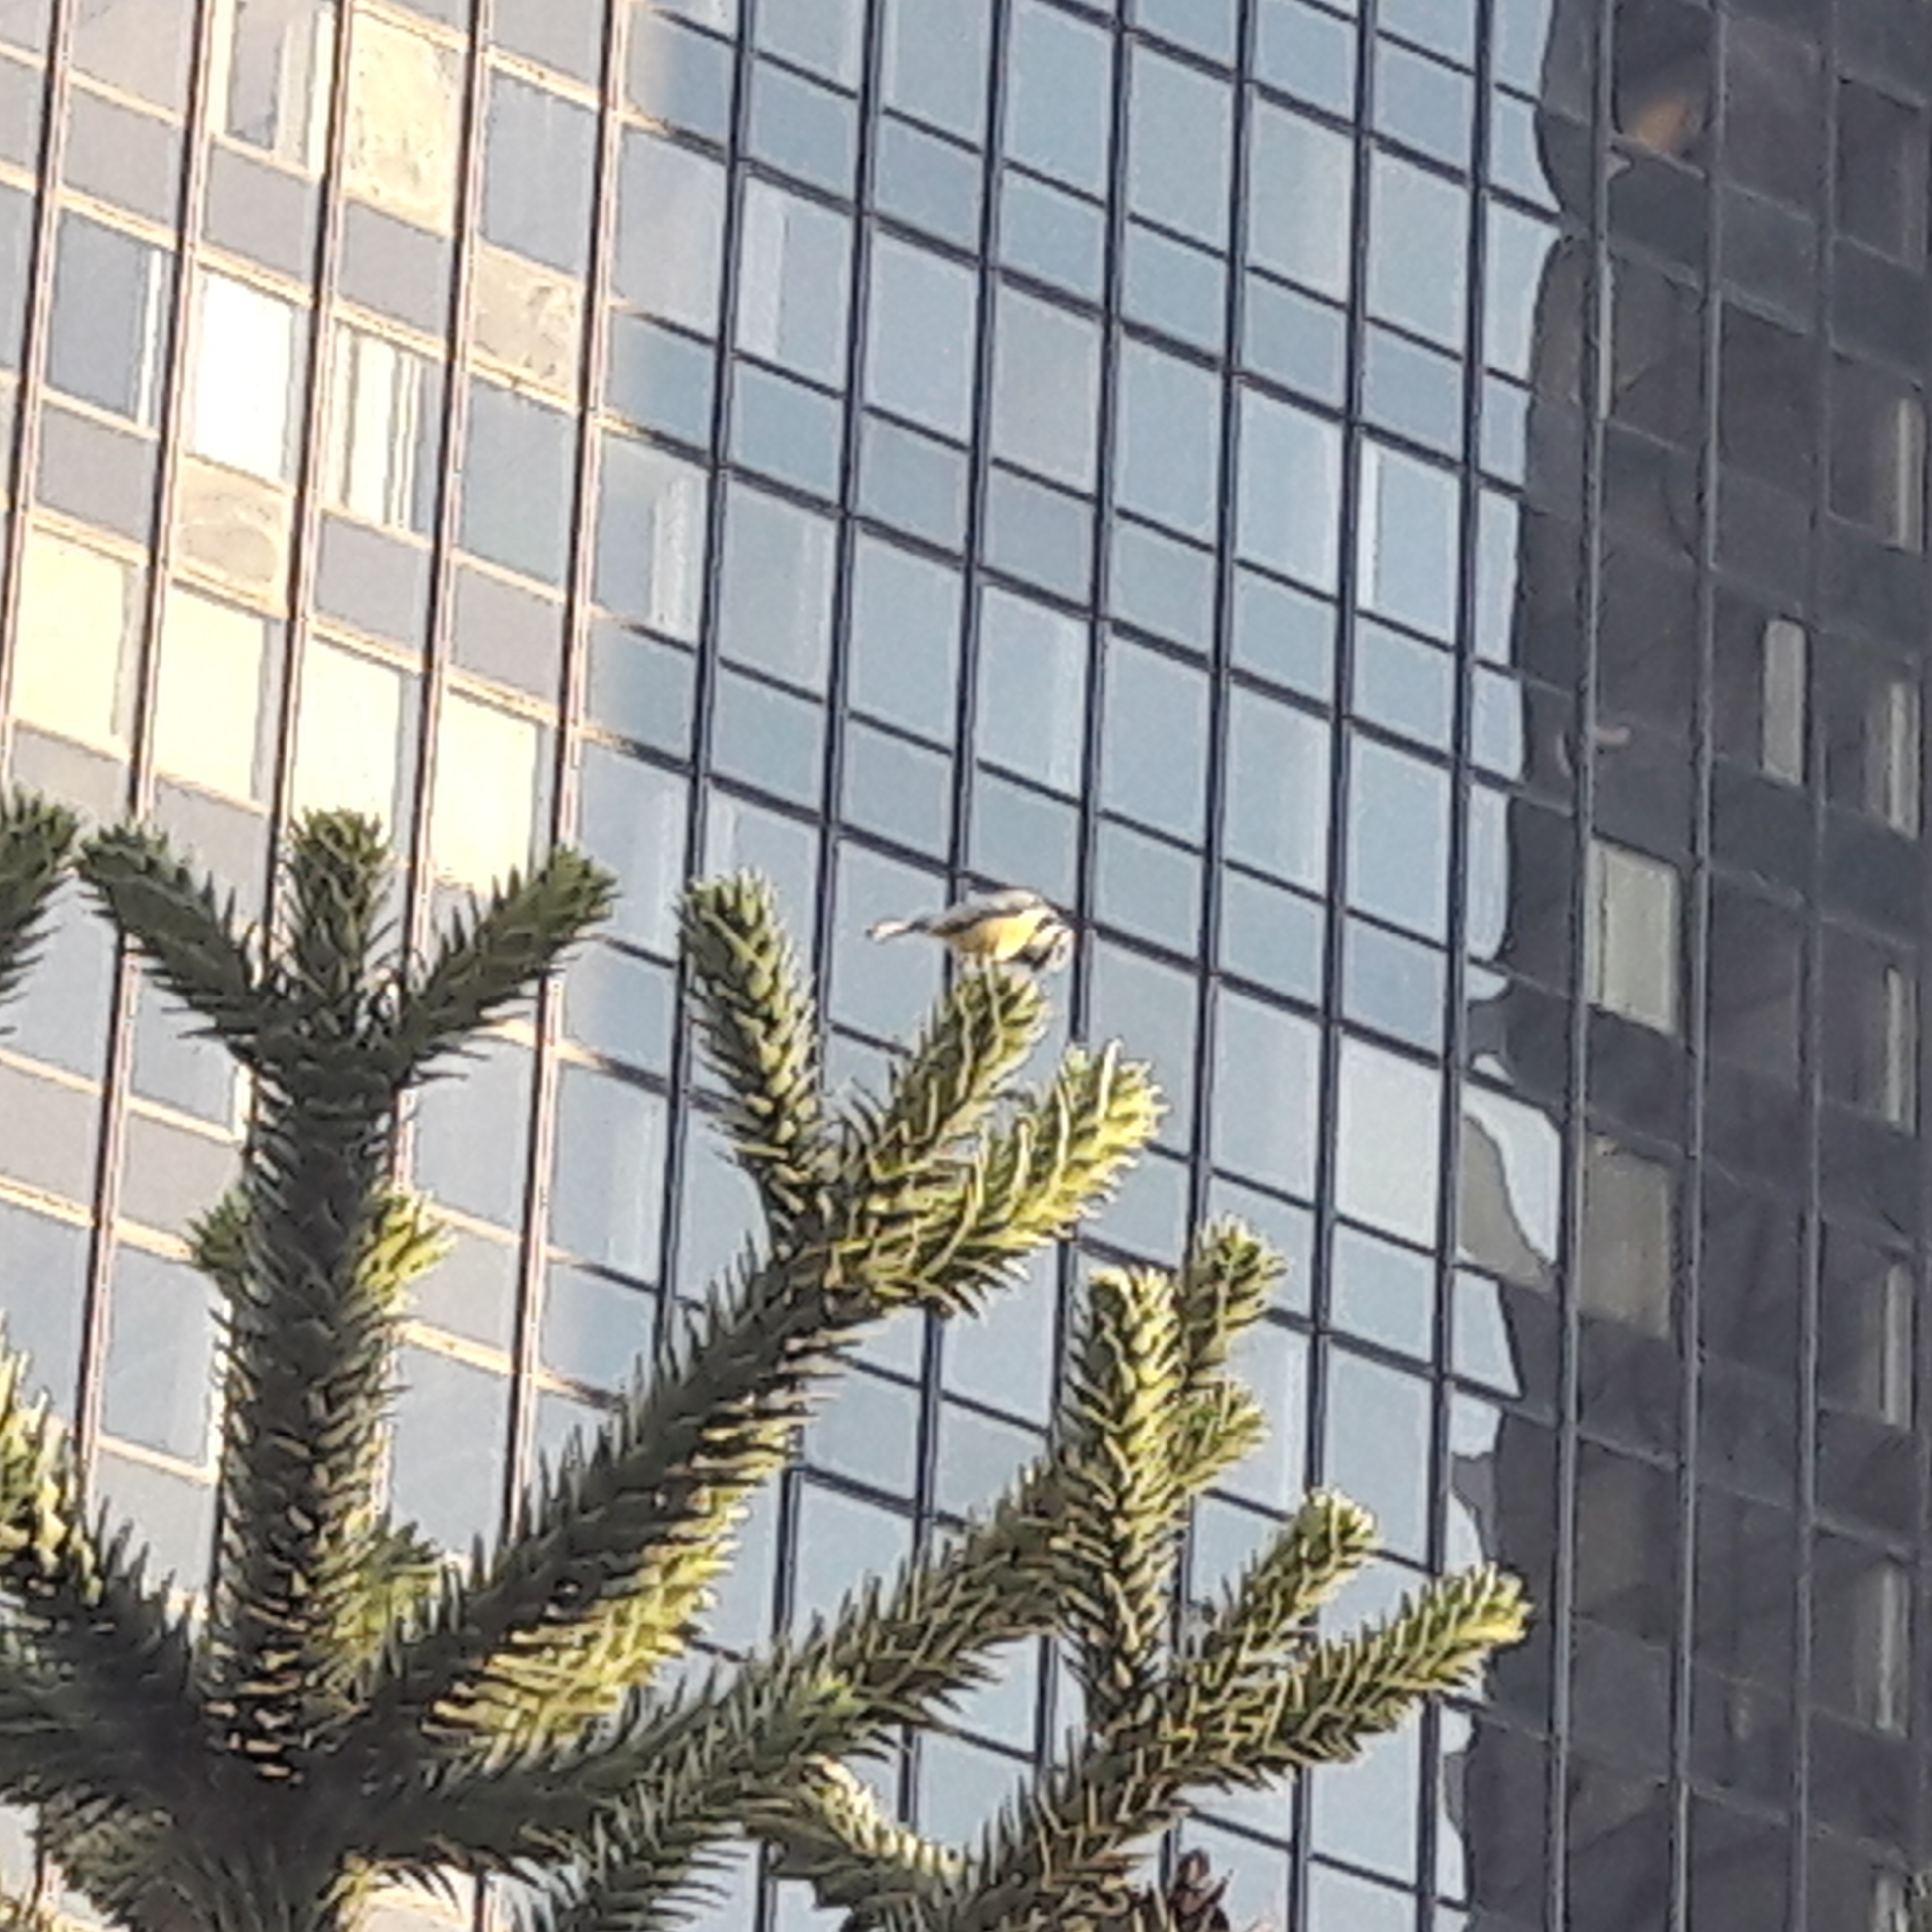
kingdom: Animalia
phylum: Chordata
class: Aves
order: Passeriformes
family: Paridae
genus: Cyanistes
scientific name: Cyanistes caeruleus
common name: Eurasian blue tit
